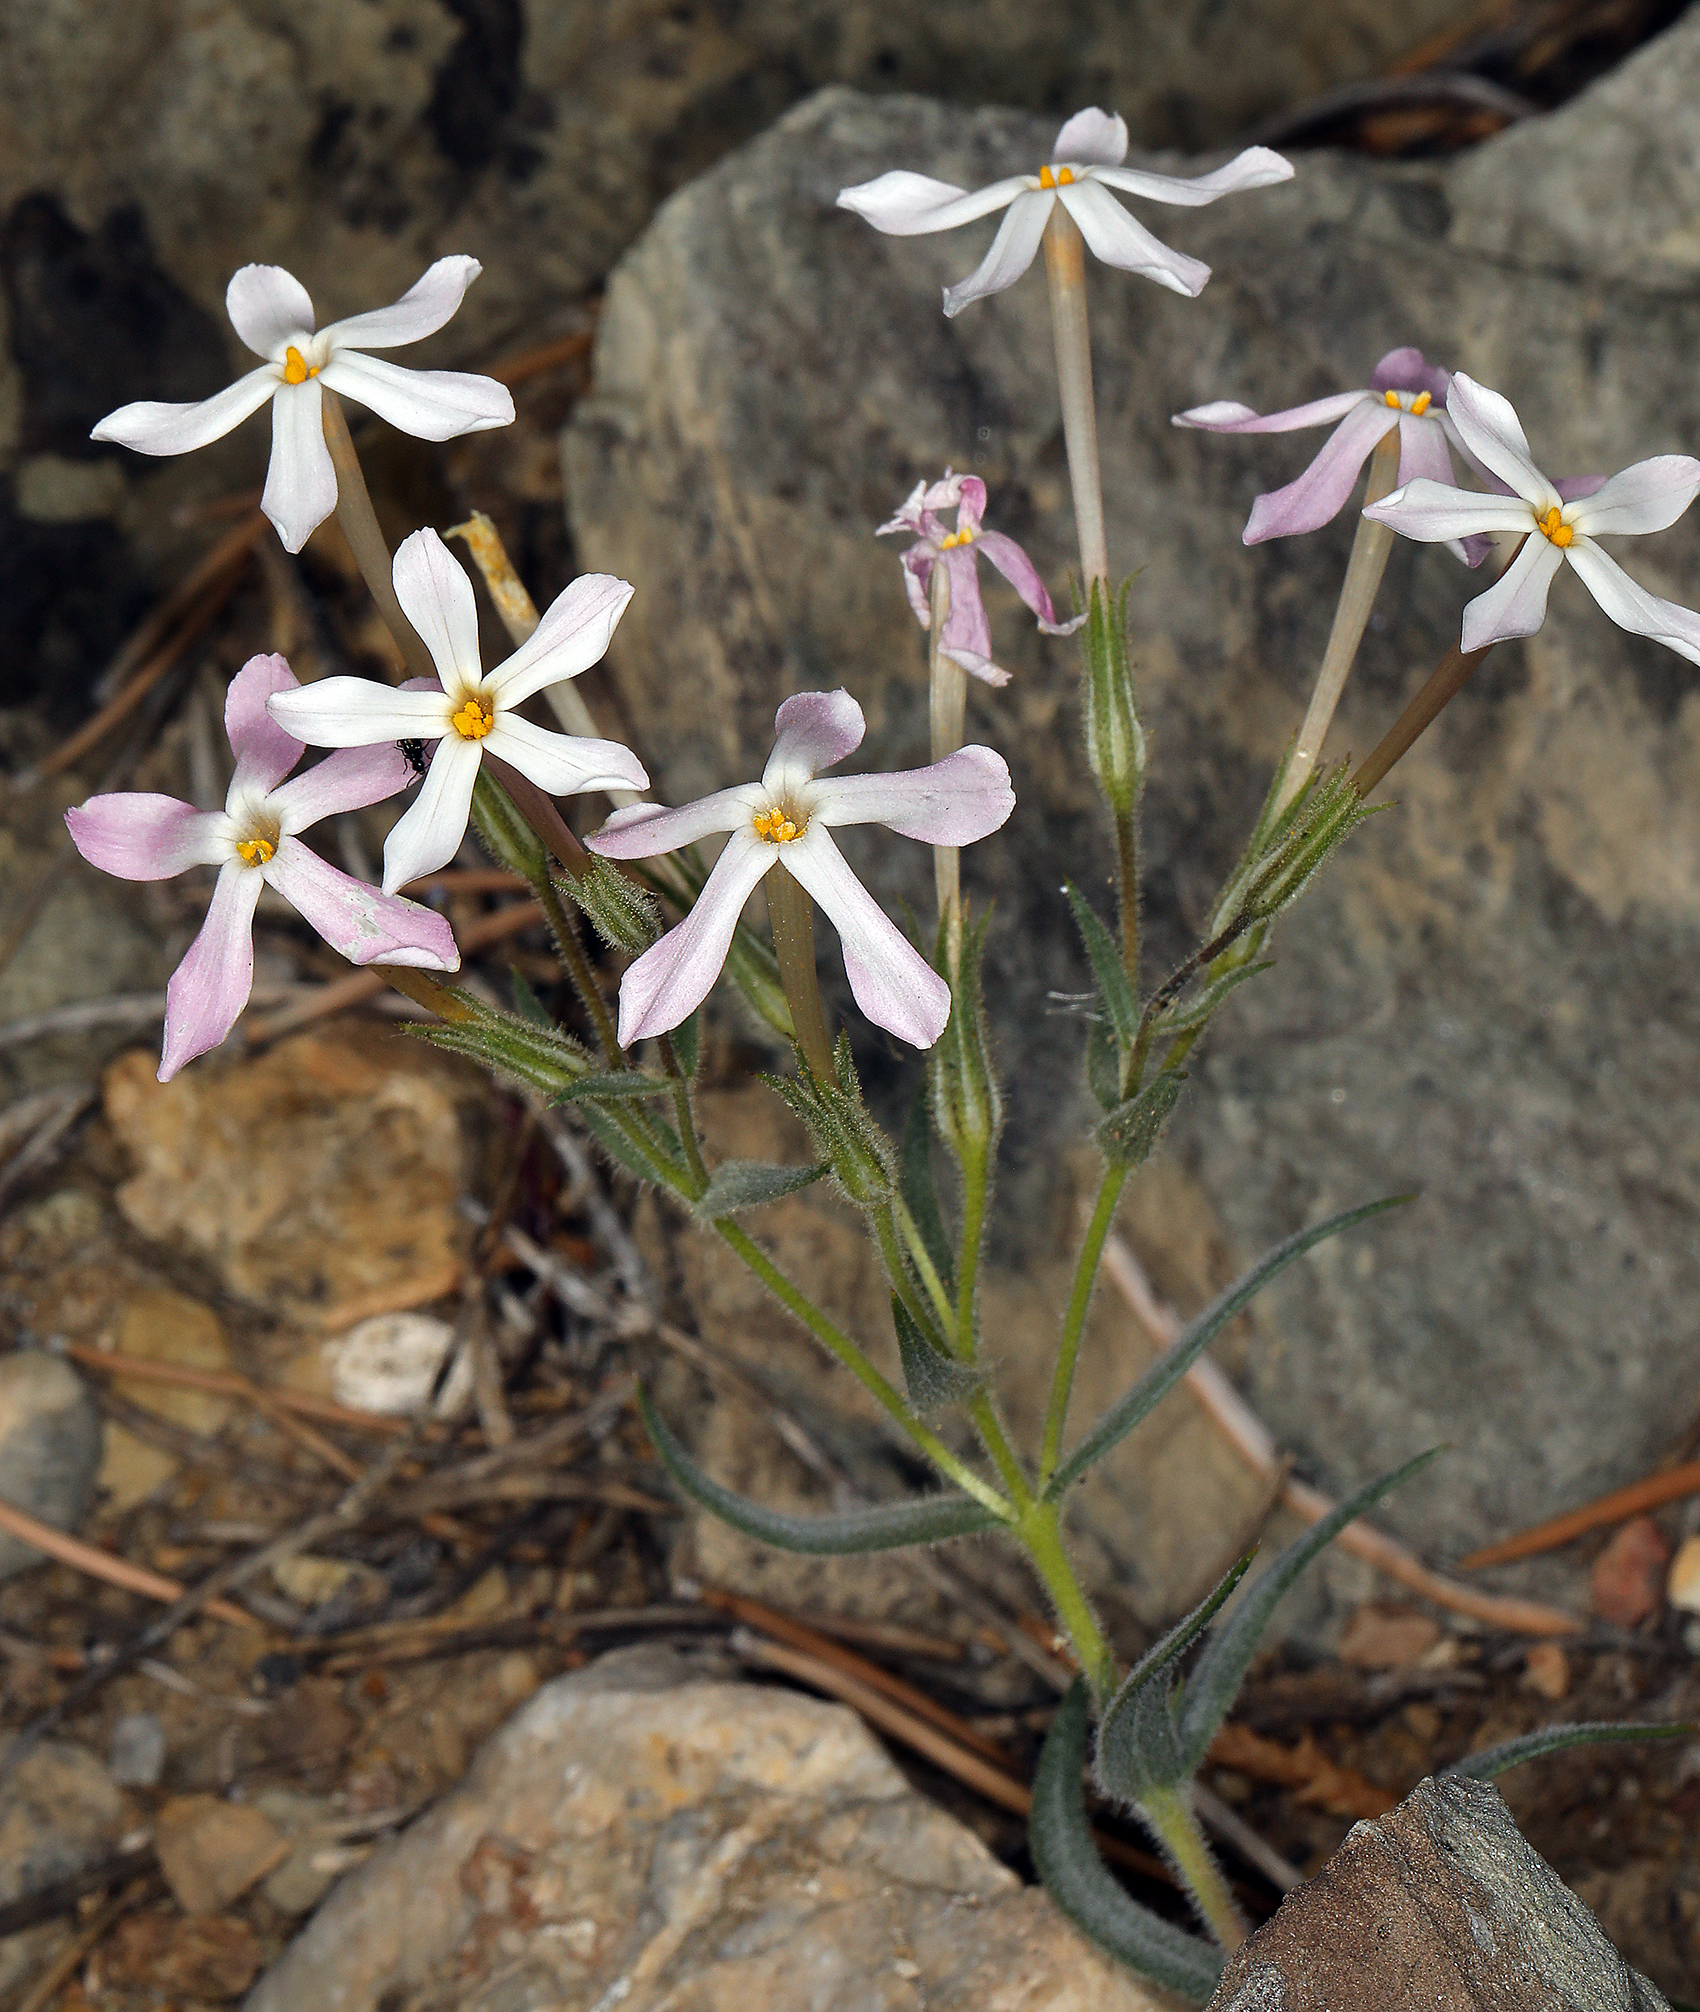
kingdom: Plantae
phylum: Tracheophyta
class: Magnoliopsida
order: Ericales
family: Polemoniaceae
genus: Phlox
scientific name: Phlox longifolia
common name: Longleaf phlox
